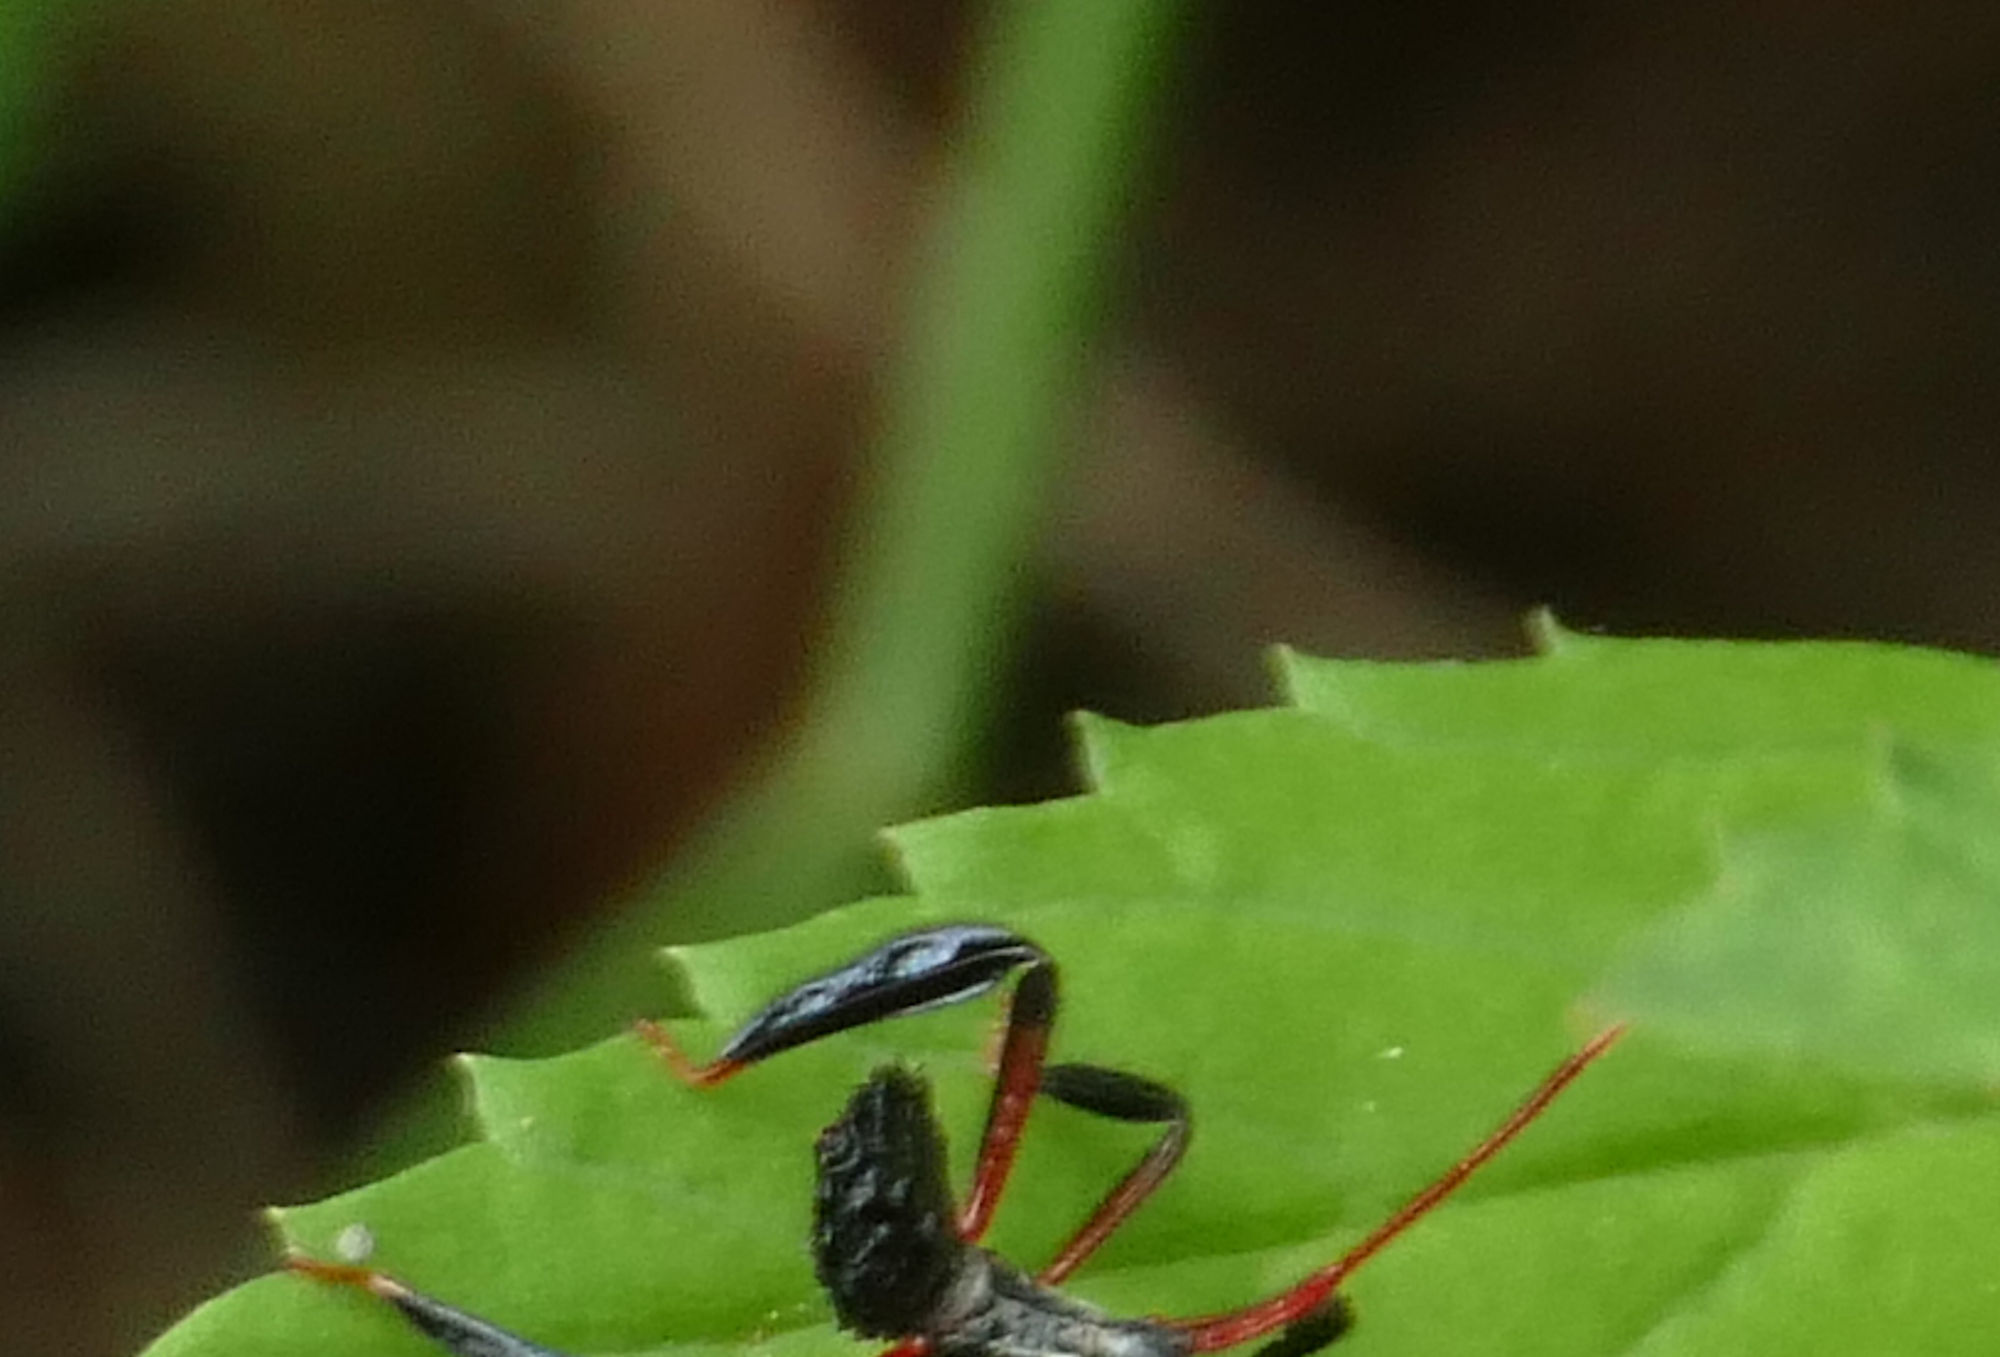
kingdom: Animalia
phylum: Arthropoda
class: Insecta
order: Hemiptera
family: Coreidae
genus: Acanthocephala
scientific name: Acanthocephala femorata
